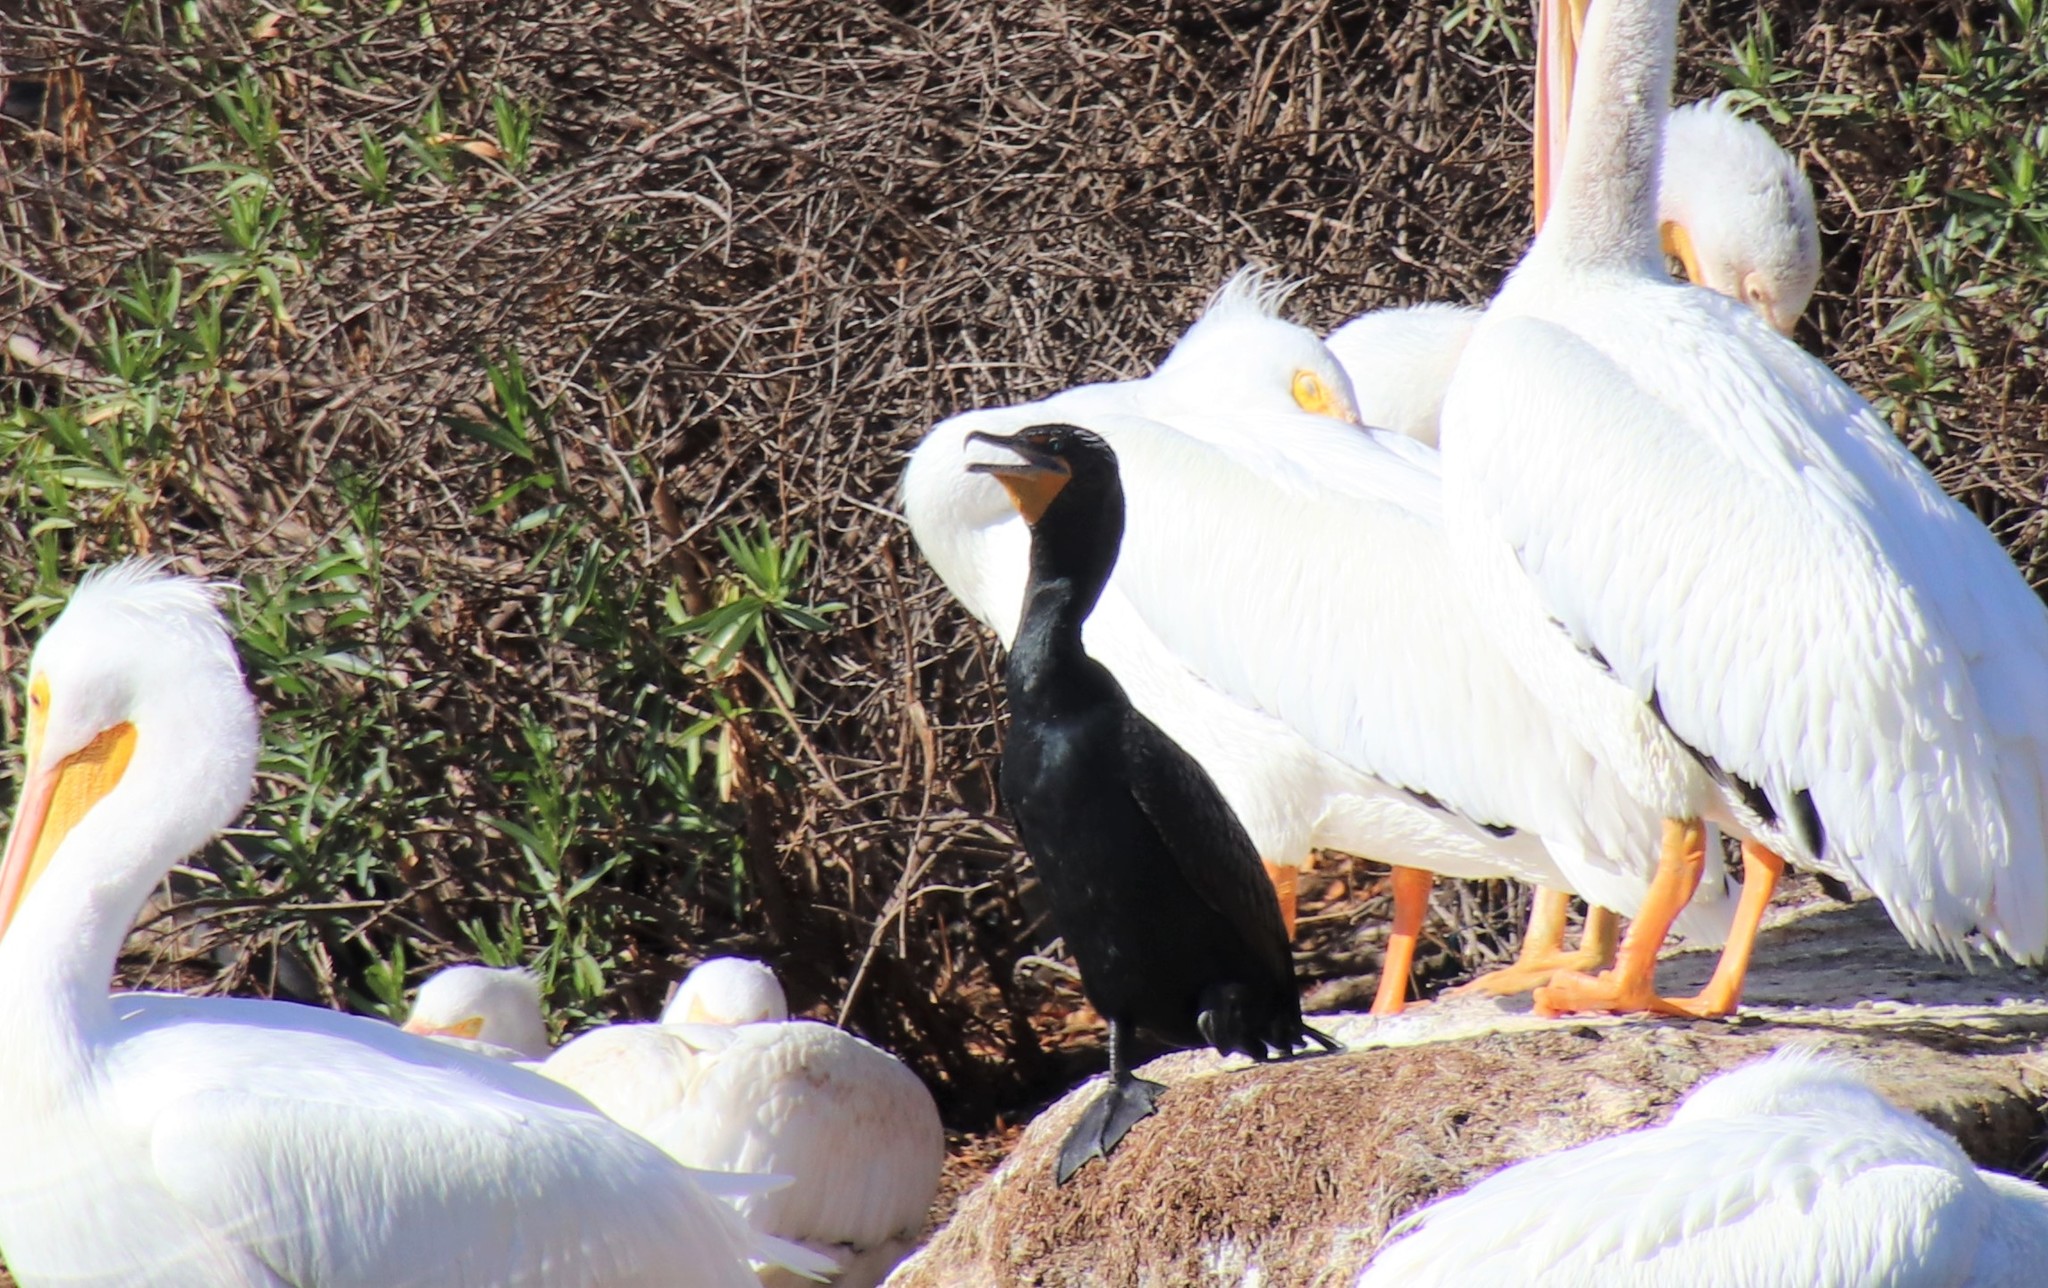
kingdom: Animalia
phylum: Chordata
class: Aves
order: Suliformes
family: Phalacrocoracidae
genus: Phalacrocorax
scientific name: Phalacrocorax auritus
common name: Double-crested cormorant
